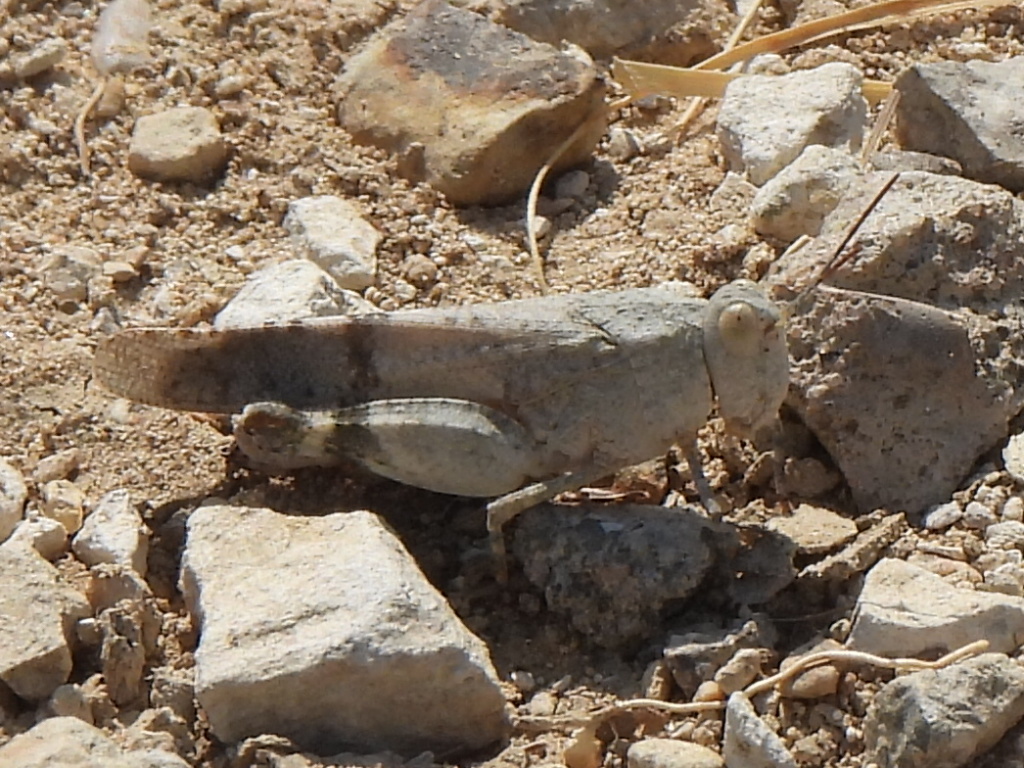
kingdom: Animalia
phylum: Arthropoda
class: Insecta
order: Orthoptera
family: Acrididae
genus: Lactista
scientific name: Lactista azteca
